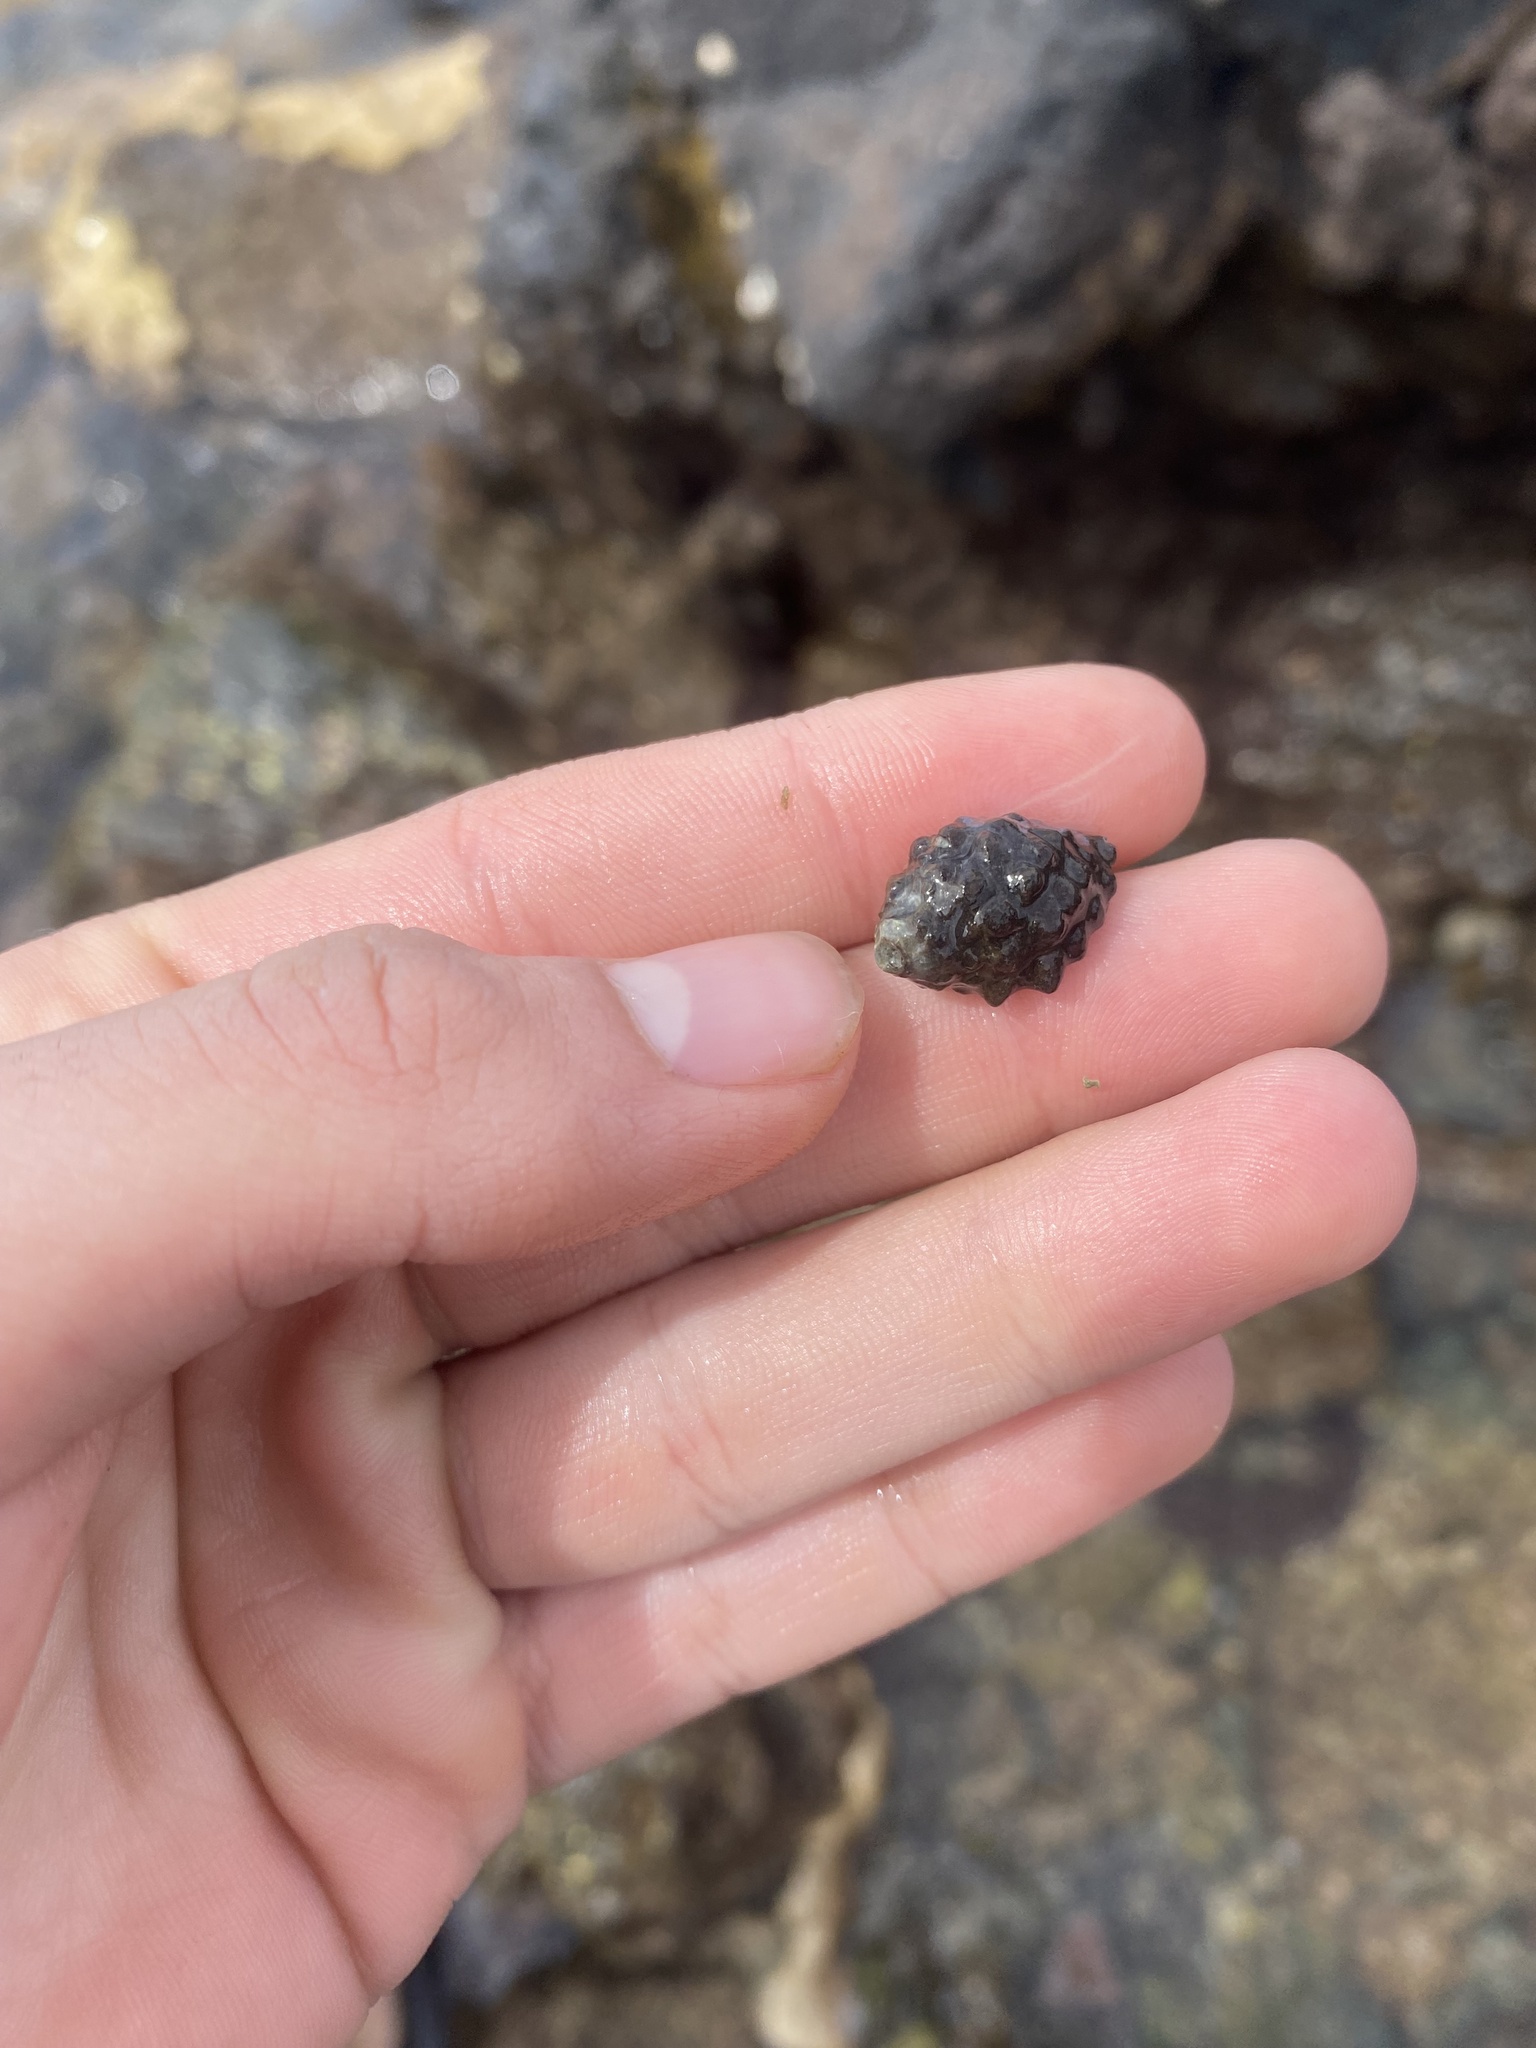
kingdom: Animalia
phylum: Mollusca
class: Gastropoda
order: Neogastropoda
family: Muricidae
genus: Tenguella
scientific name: Tenguella granulata
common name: Granular drupe
